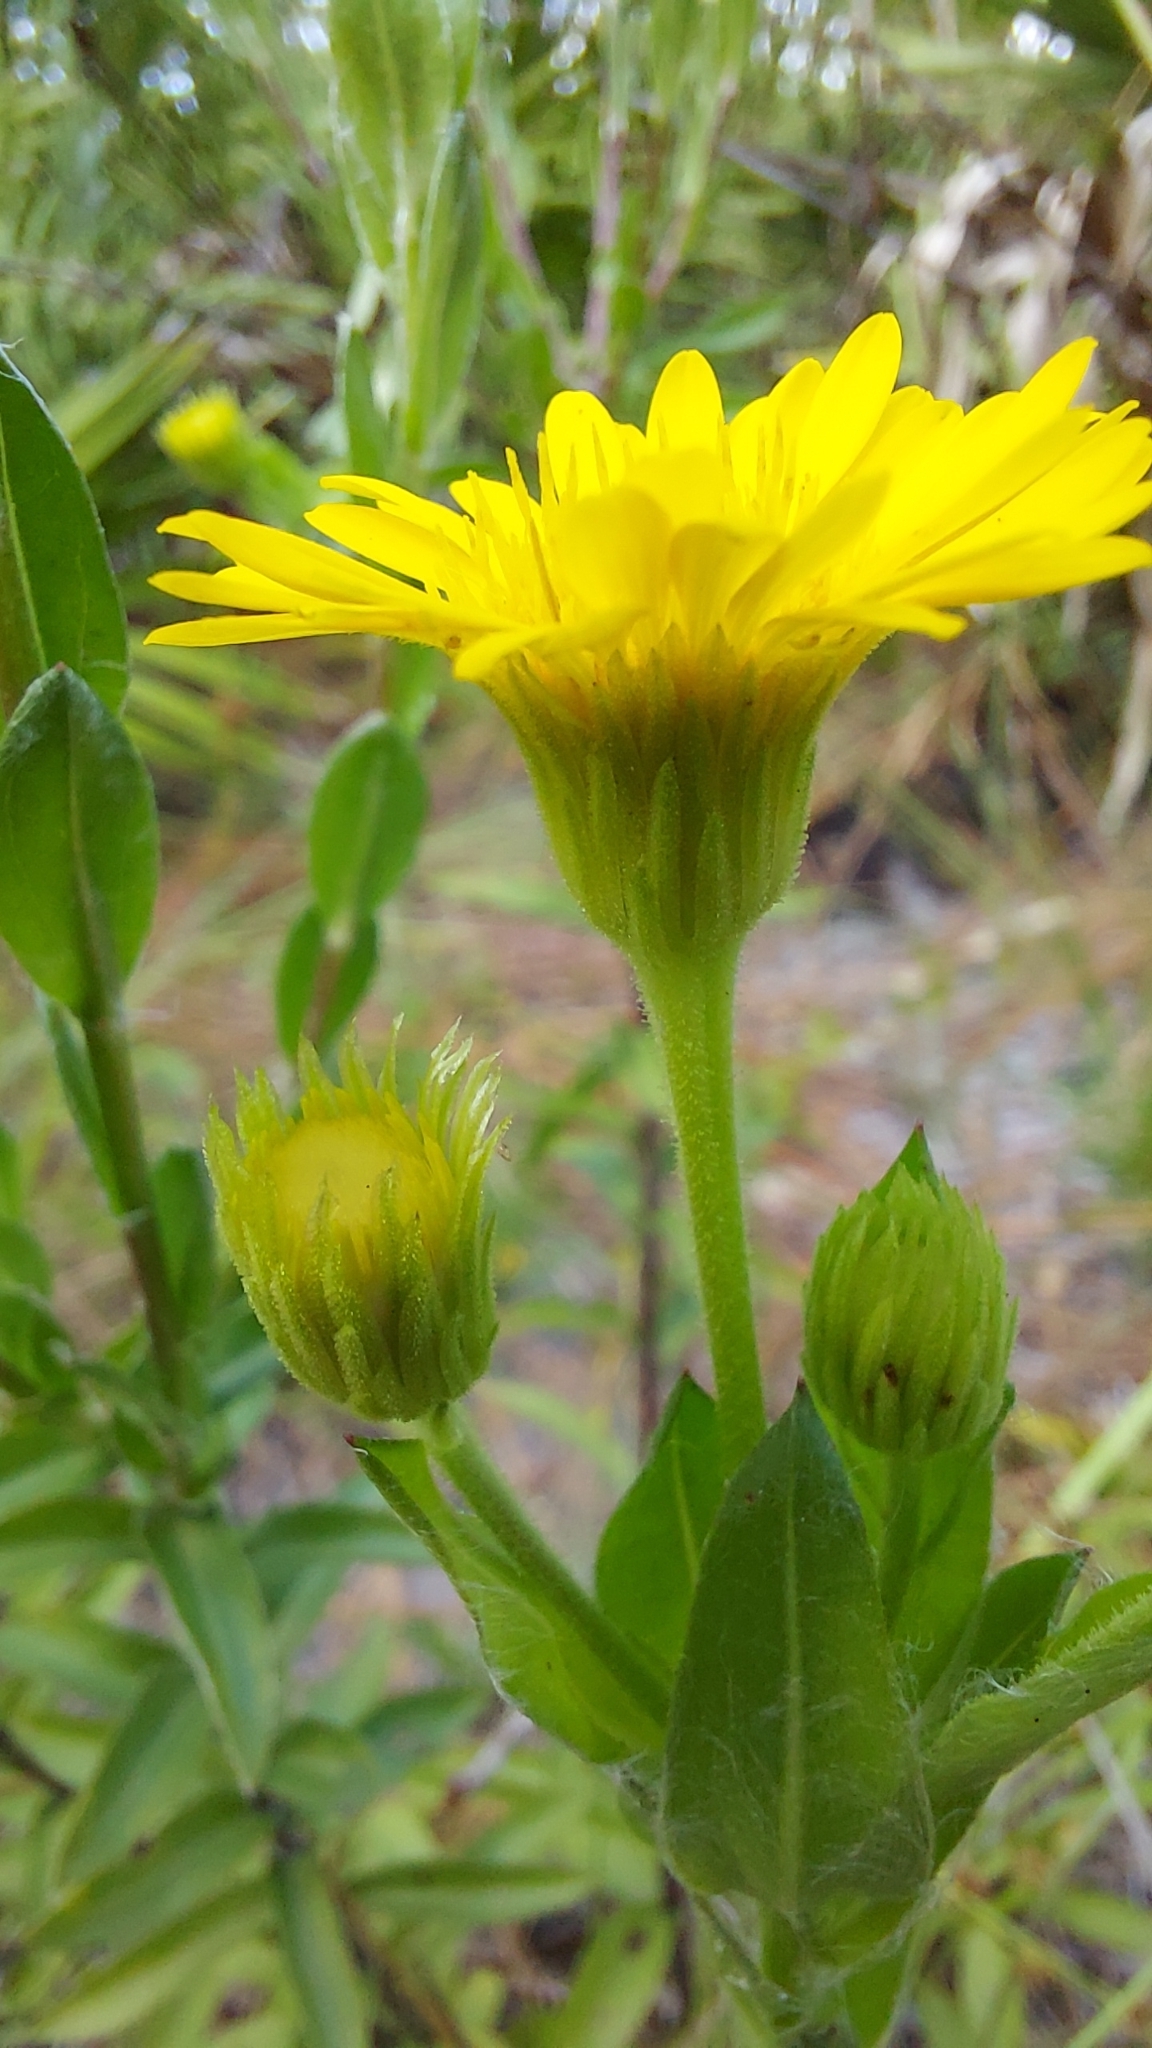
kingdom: Plantae
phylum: Tracheophyta
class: Magnoliopsida
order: Asterales
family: Asteraceae
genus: Chrysopsis
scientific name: Chrysopsis mariana
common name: Maryland golden-aster
